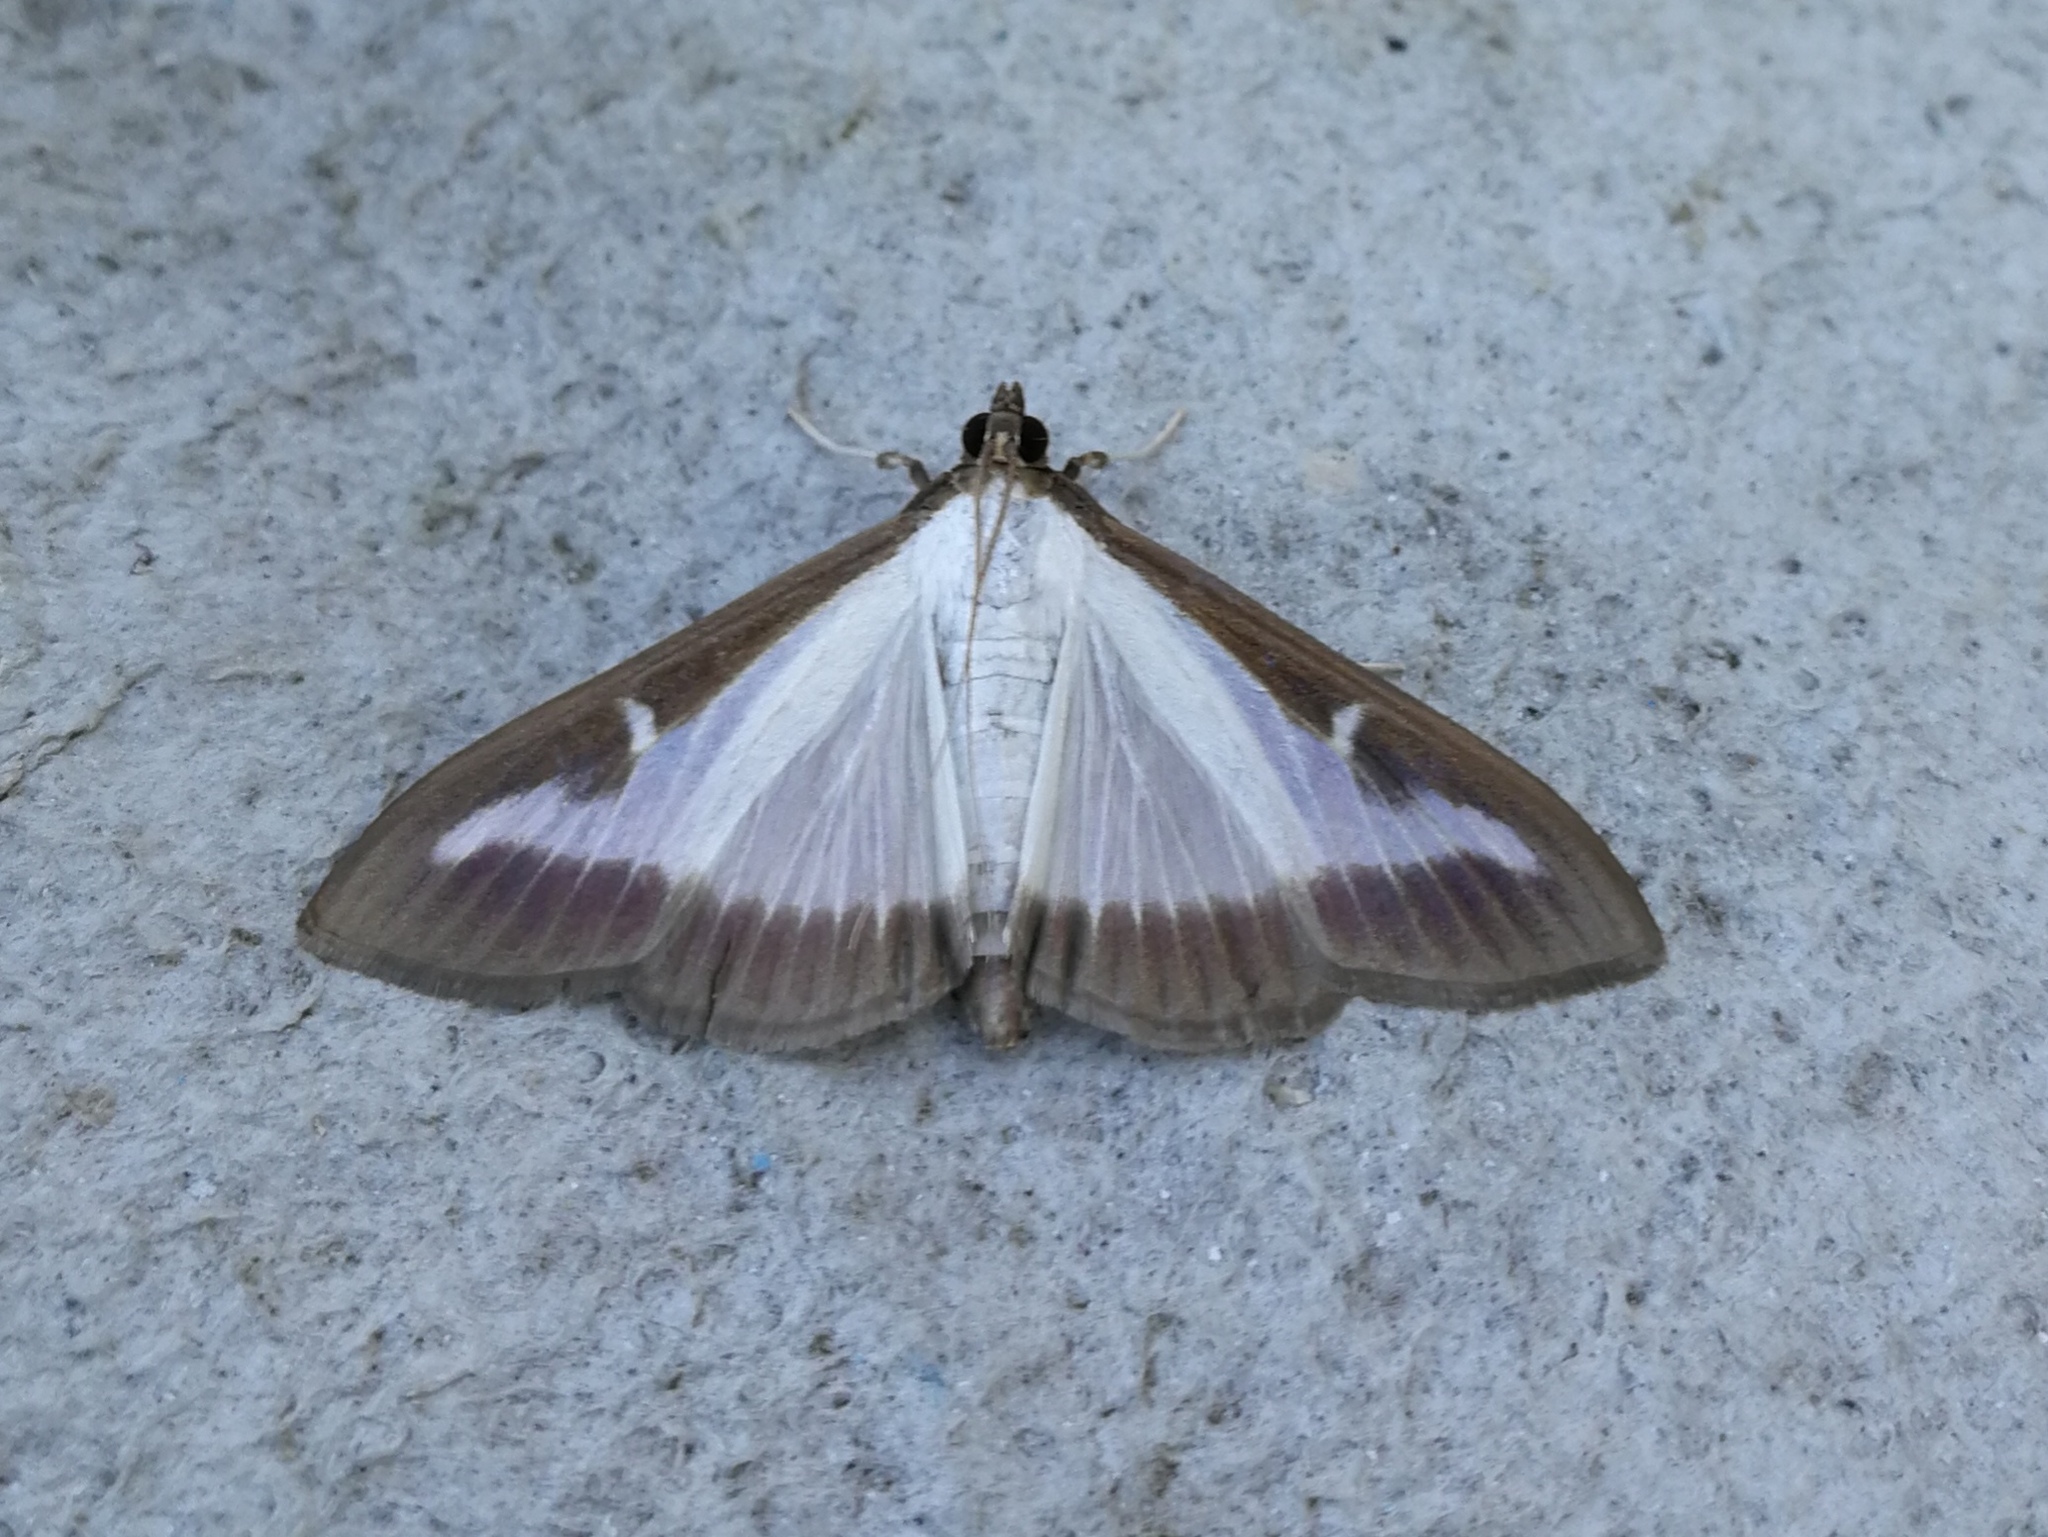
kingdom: Animalia
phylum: Arthropoda
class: Insecta
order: Lepidoptera
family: Crambidae
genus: Cydalima
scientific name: Cydalima perspectalis
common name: Box tree moth
